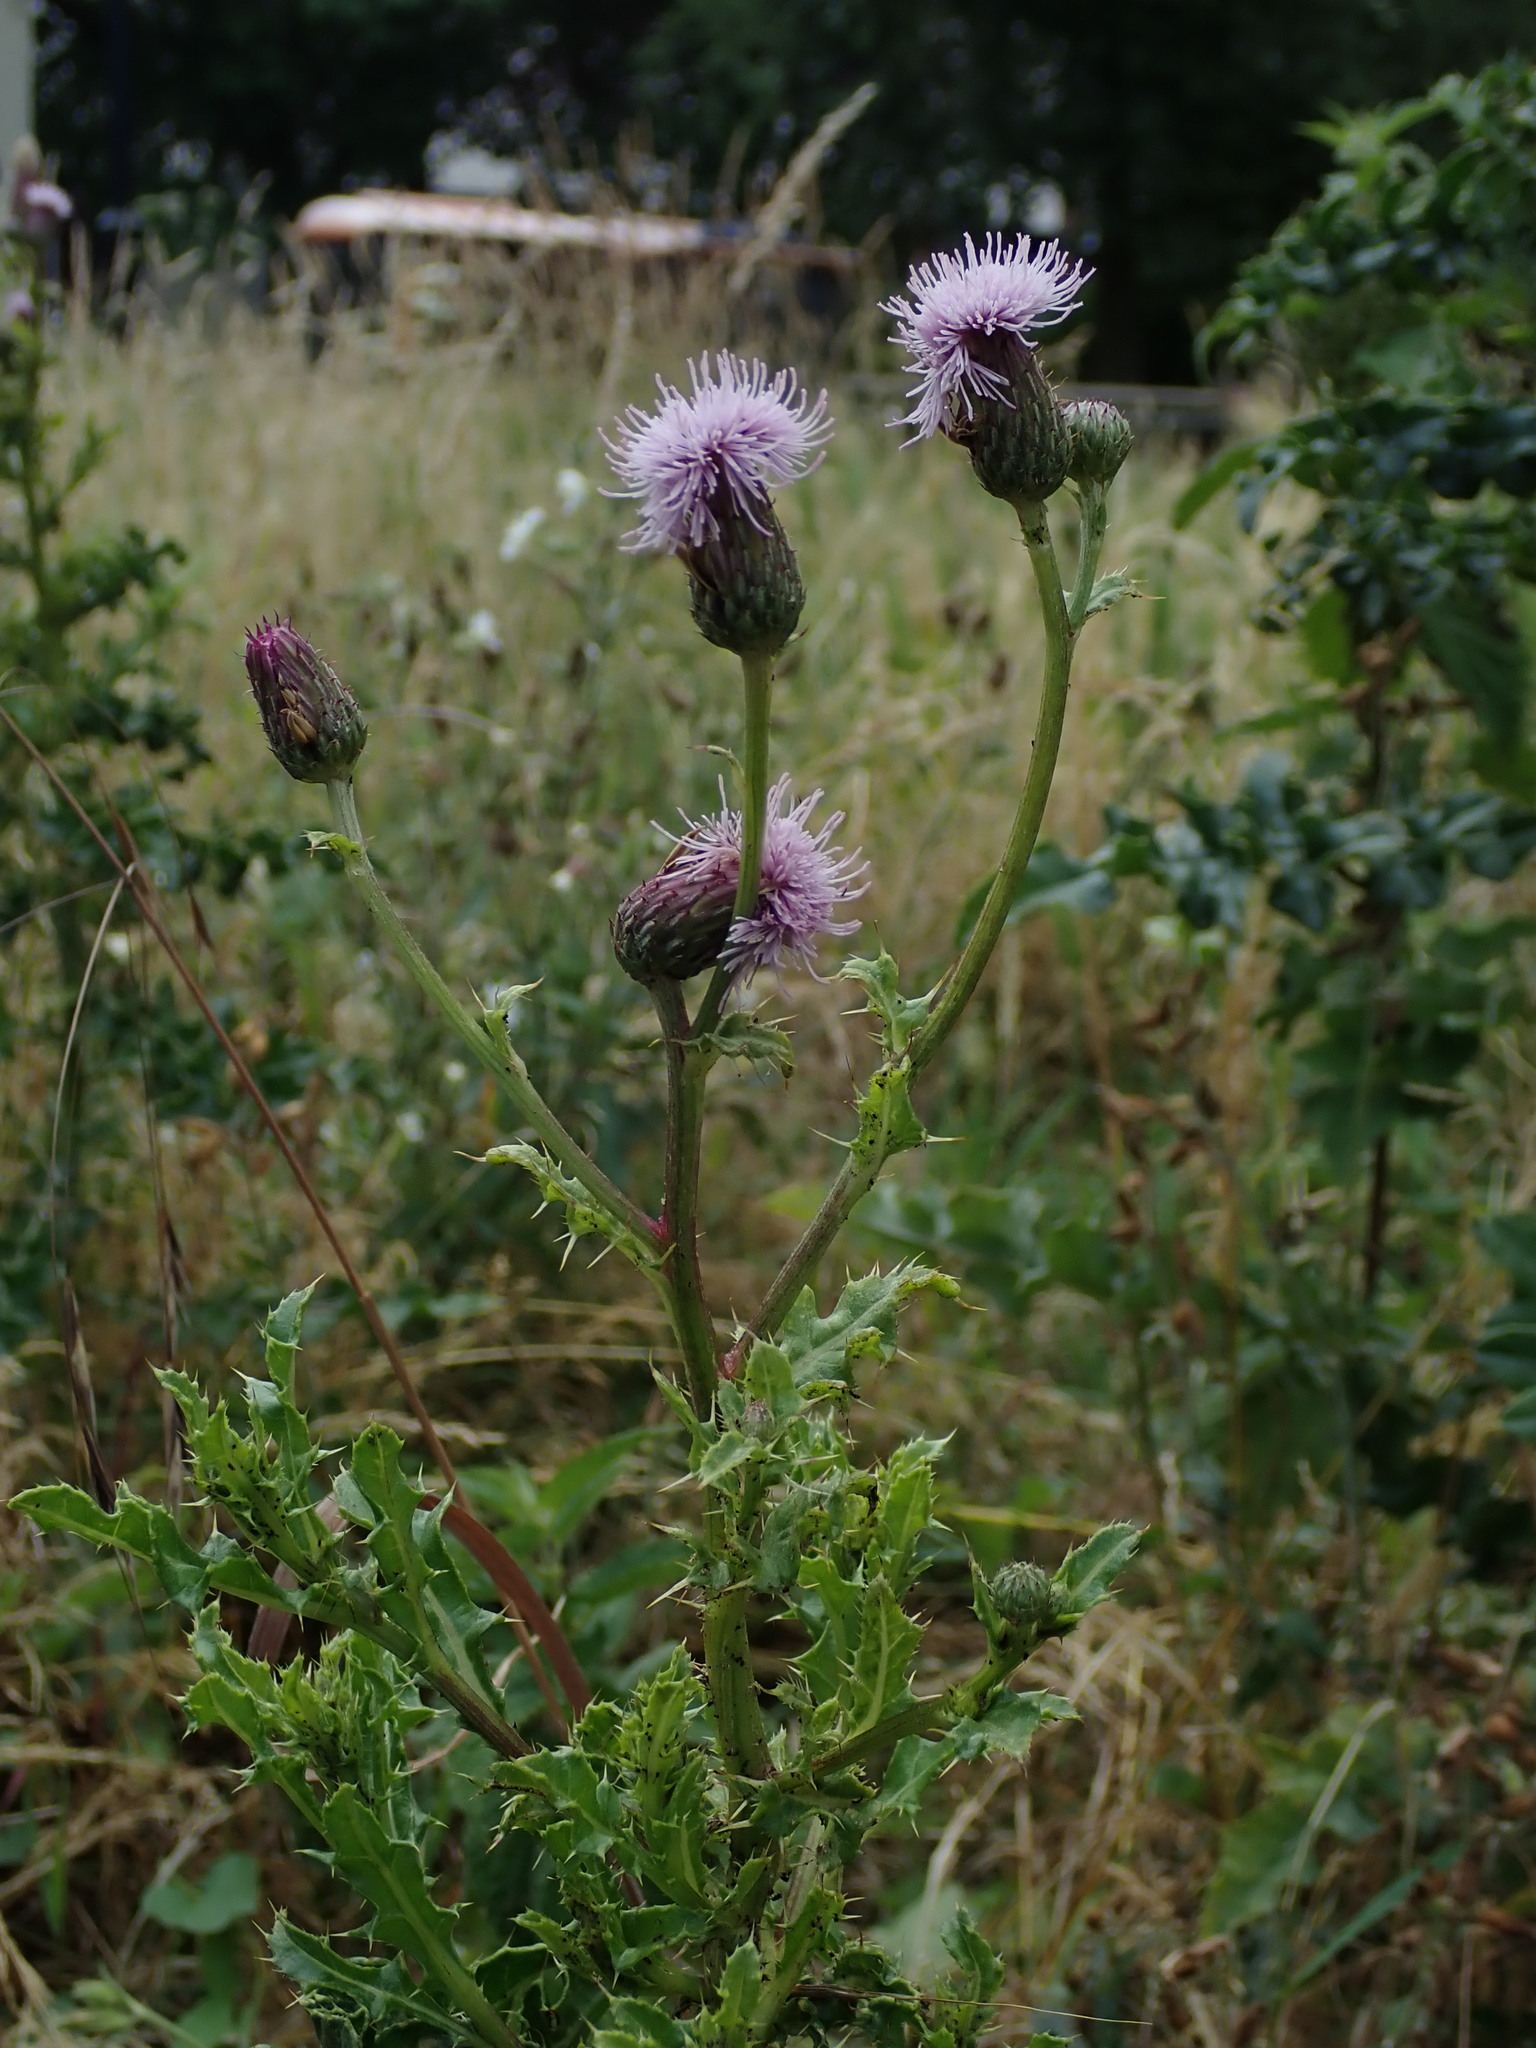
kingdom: Plantae
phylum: Tracheophyta
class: Magnoliopsida
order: Asterales
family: Asteraceae
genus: Cirsium
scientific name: Cirsium arvense
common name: Creeping thistle
